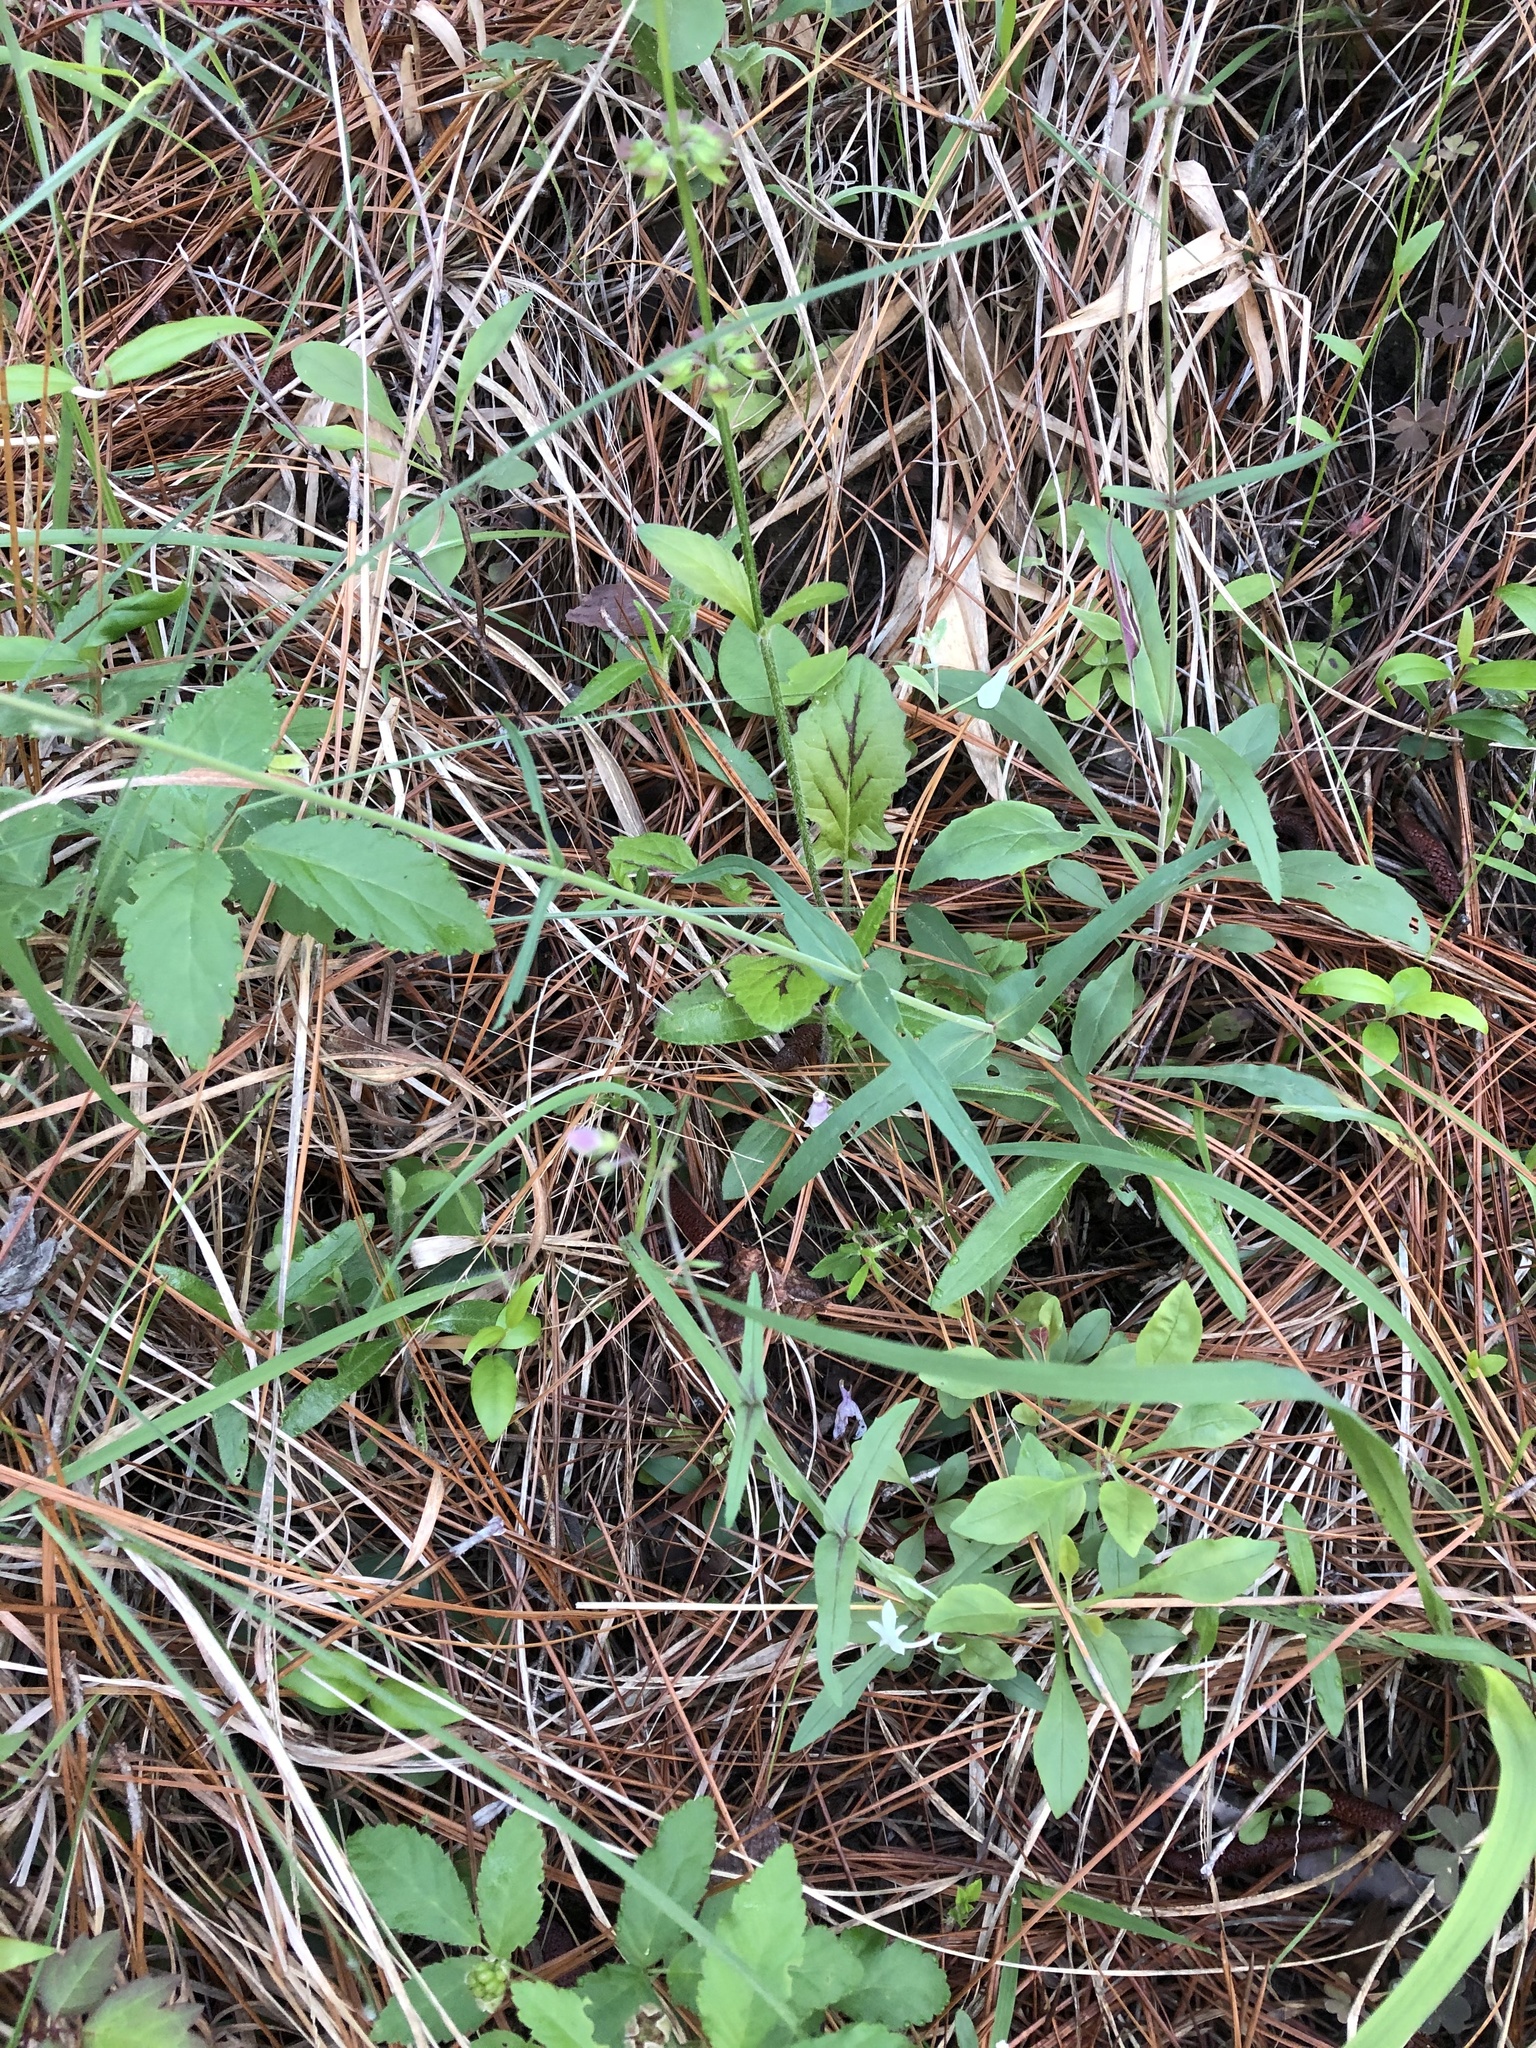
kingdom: Plantae
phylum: Tracheophyta
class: Magnoliopsida
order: Lamiales
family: Plantaginaceae
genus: Penstemon
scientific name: Penstemon laxiflorus
